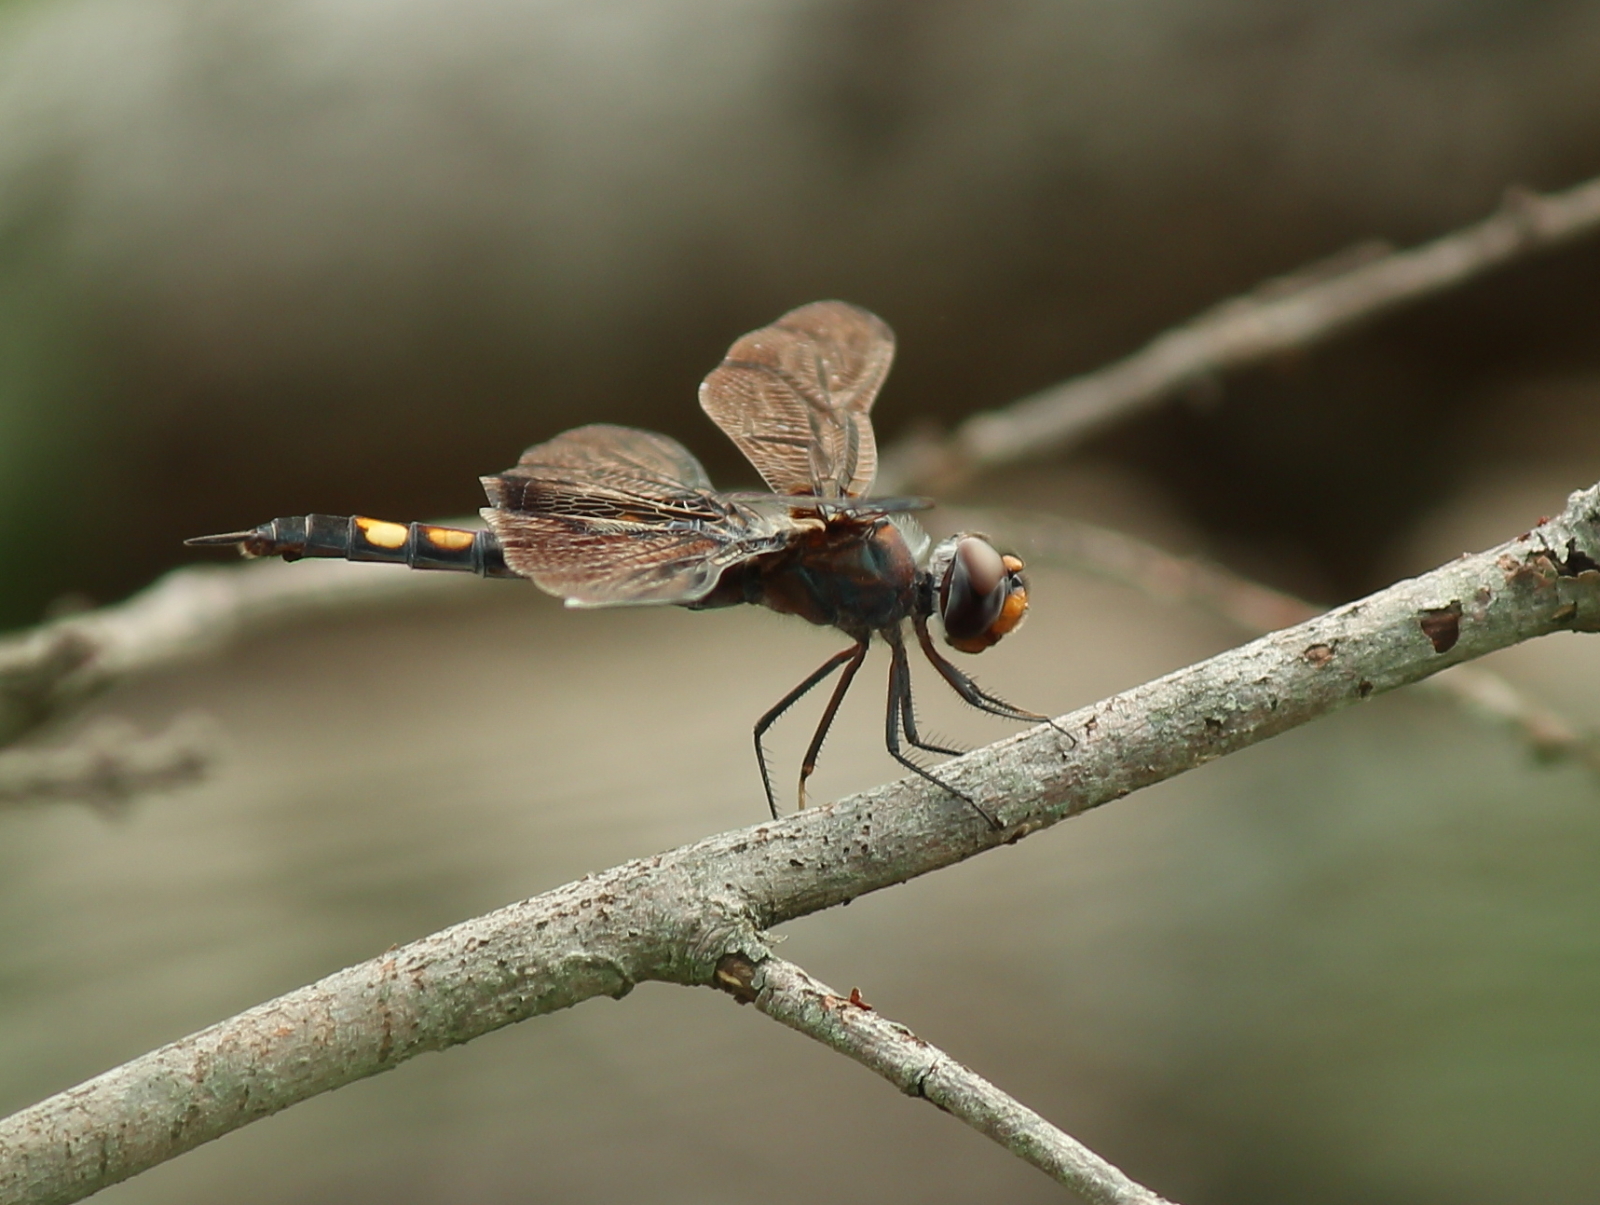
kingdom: Animalia
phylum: Arthropoda
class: Insecta
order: Odonata
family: Libellulidae
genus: Tramea
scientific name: Tramea lacerata
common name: Black saddlebags
